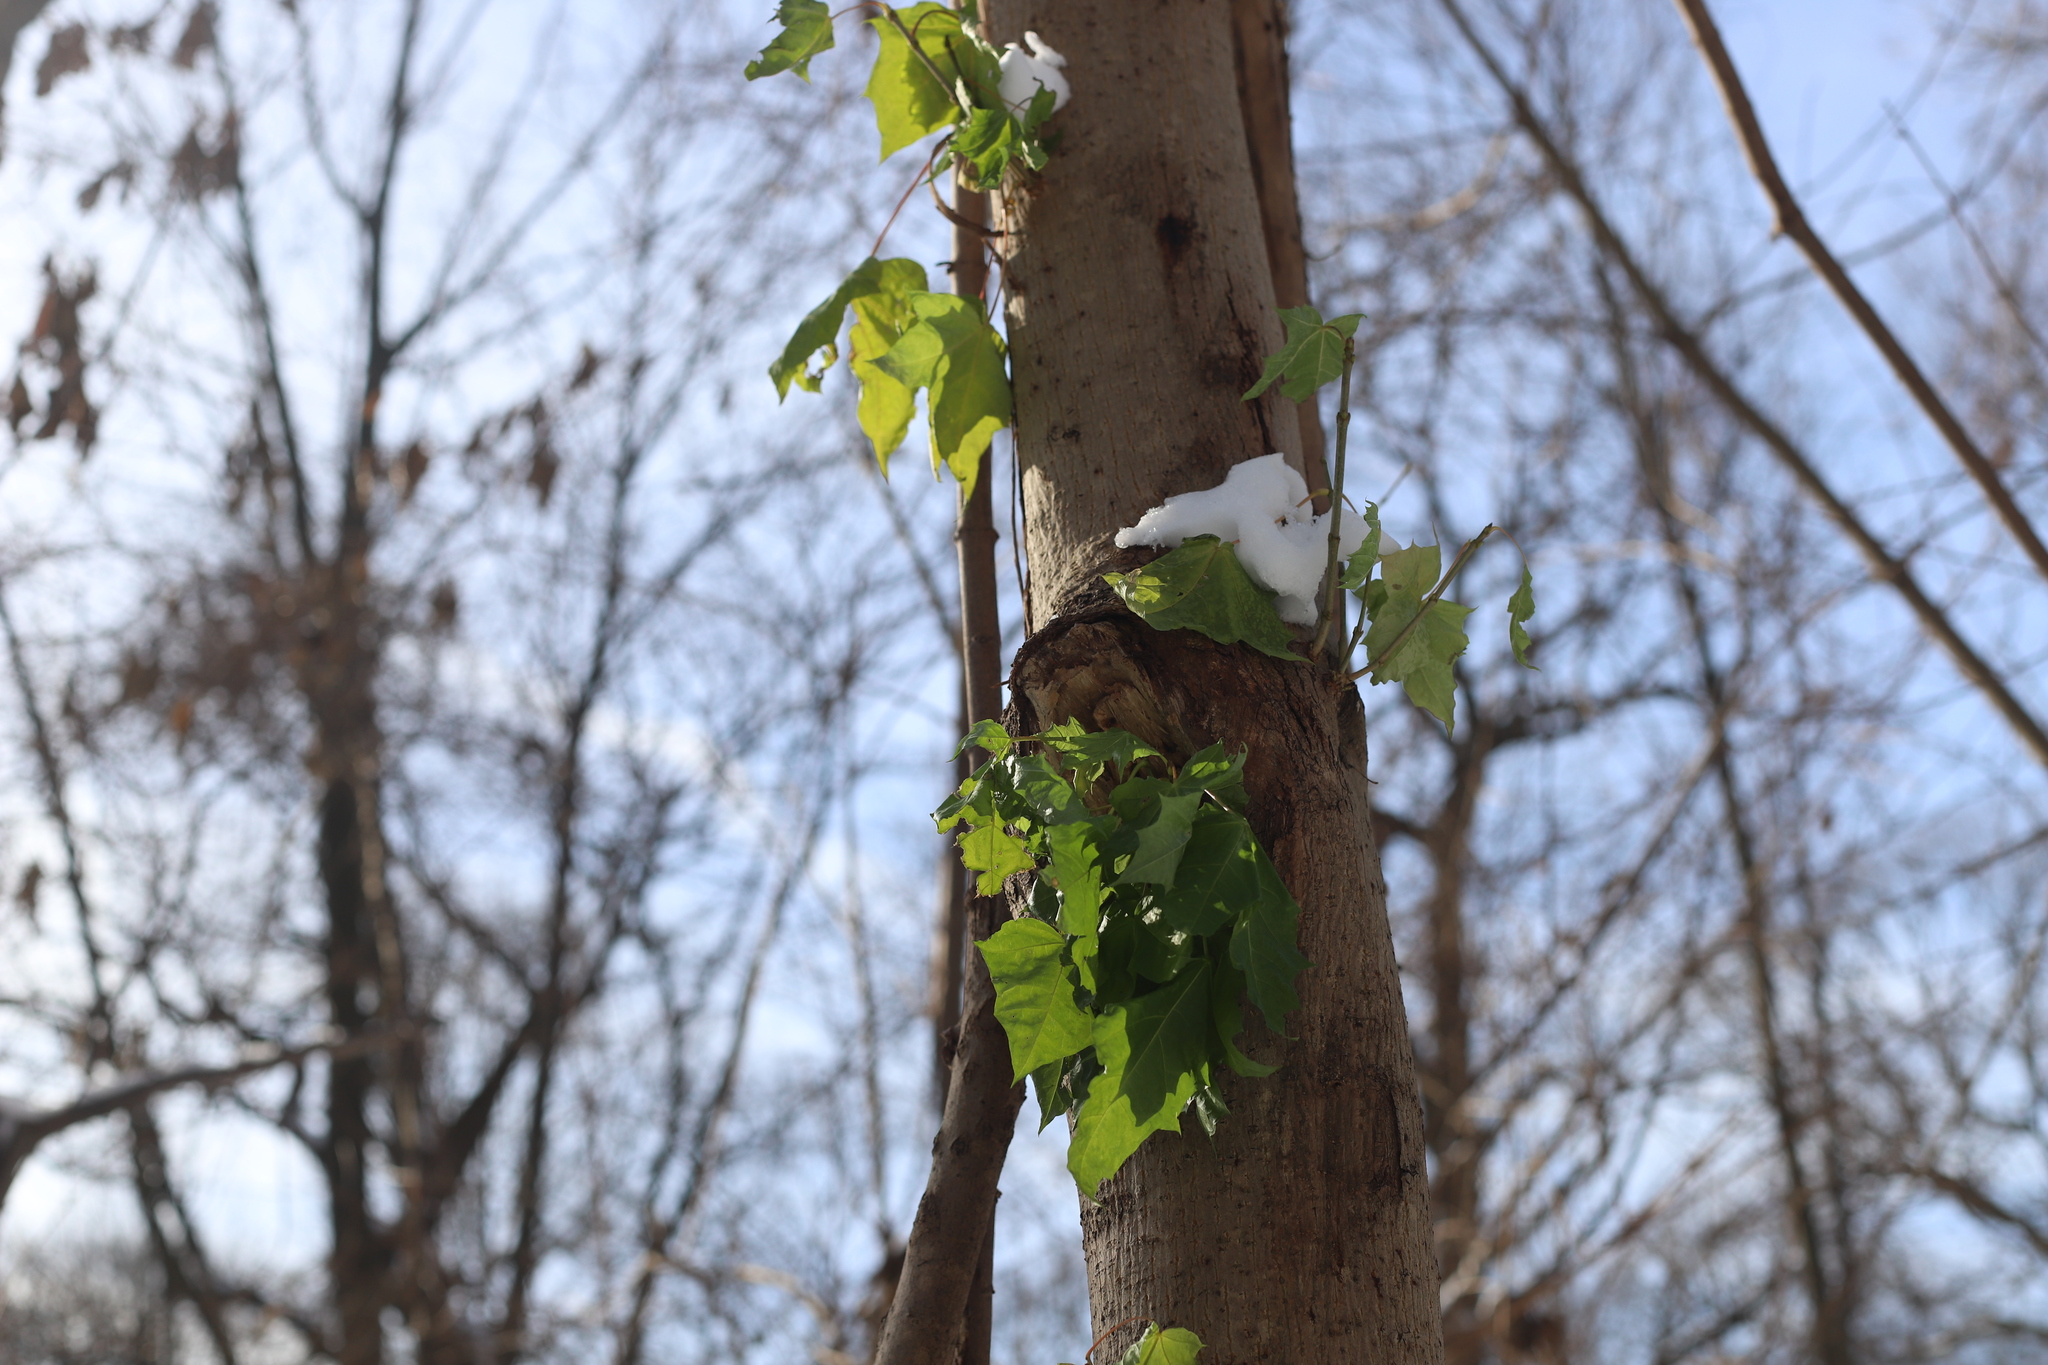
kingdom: Plantae
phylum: Tracheophyta
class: Magnoliopsida
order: Sapindales
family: Sapindaceae
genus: Acer
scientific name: Acer platanoides
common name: Norway maple
